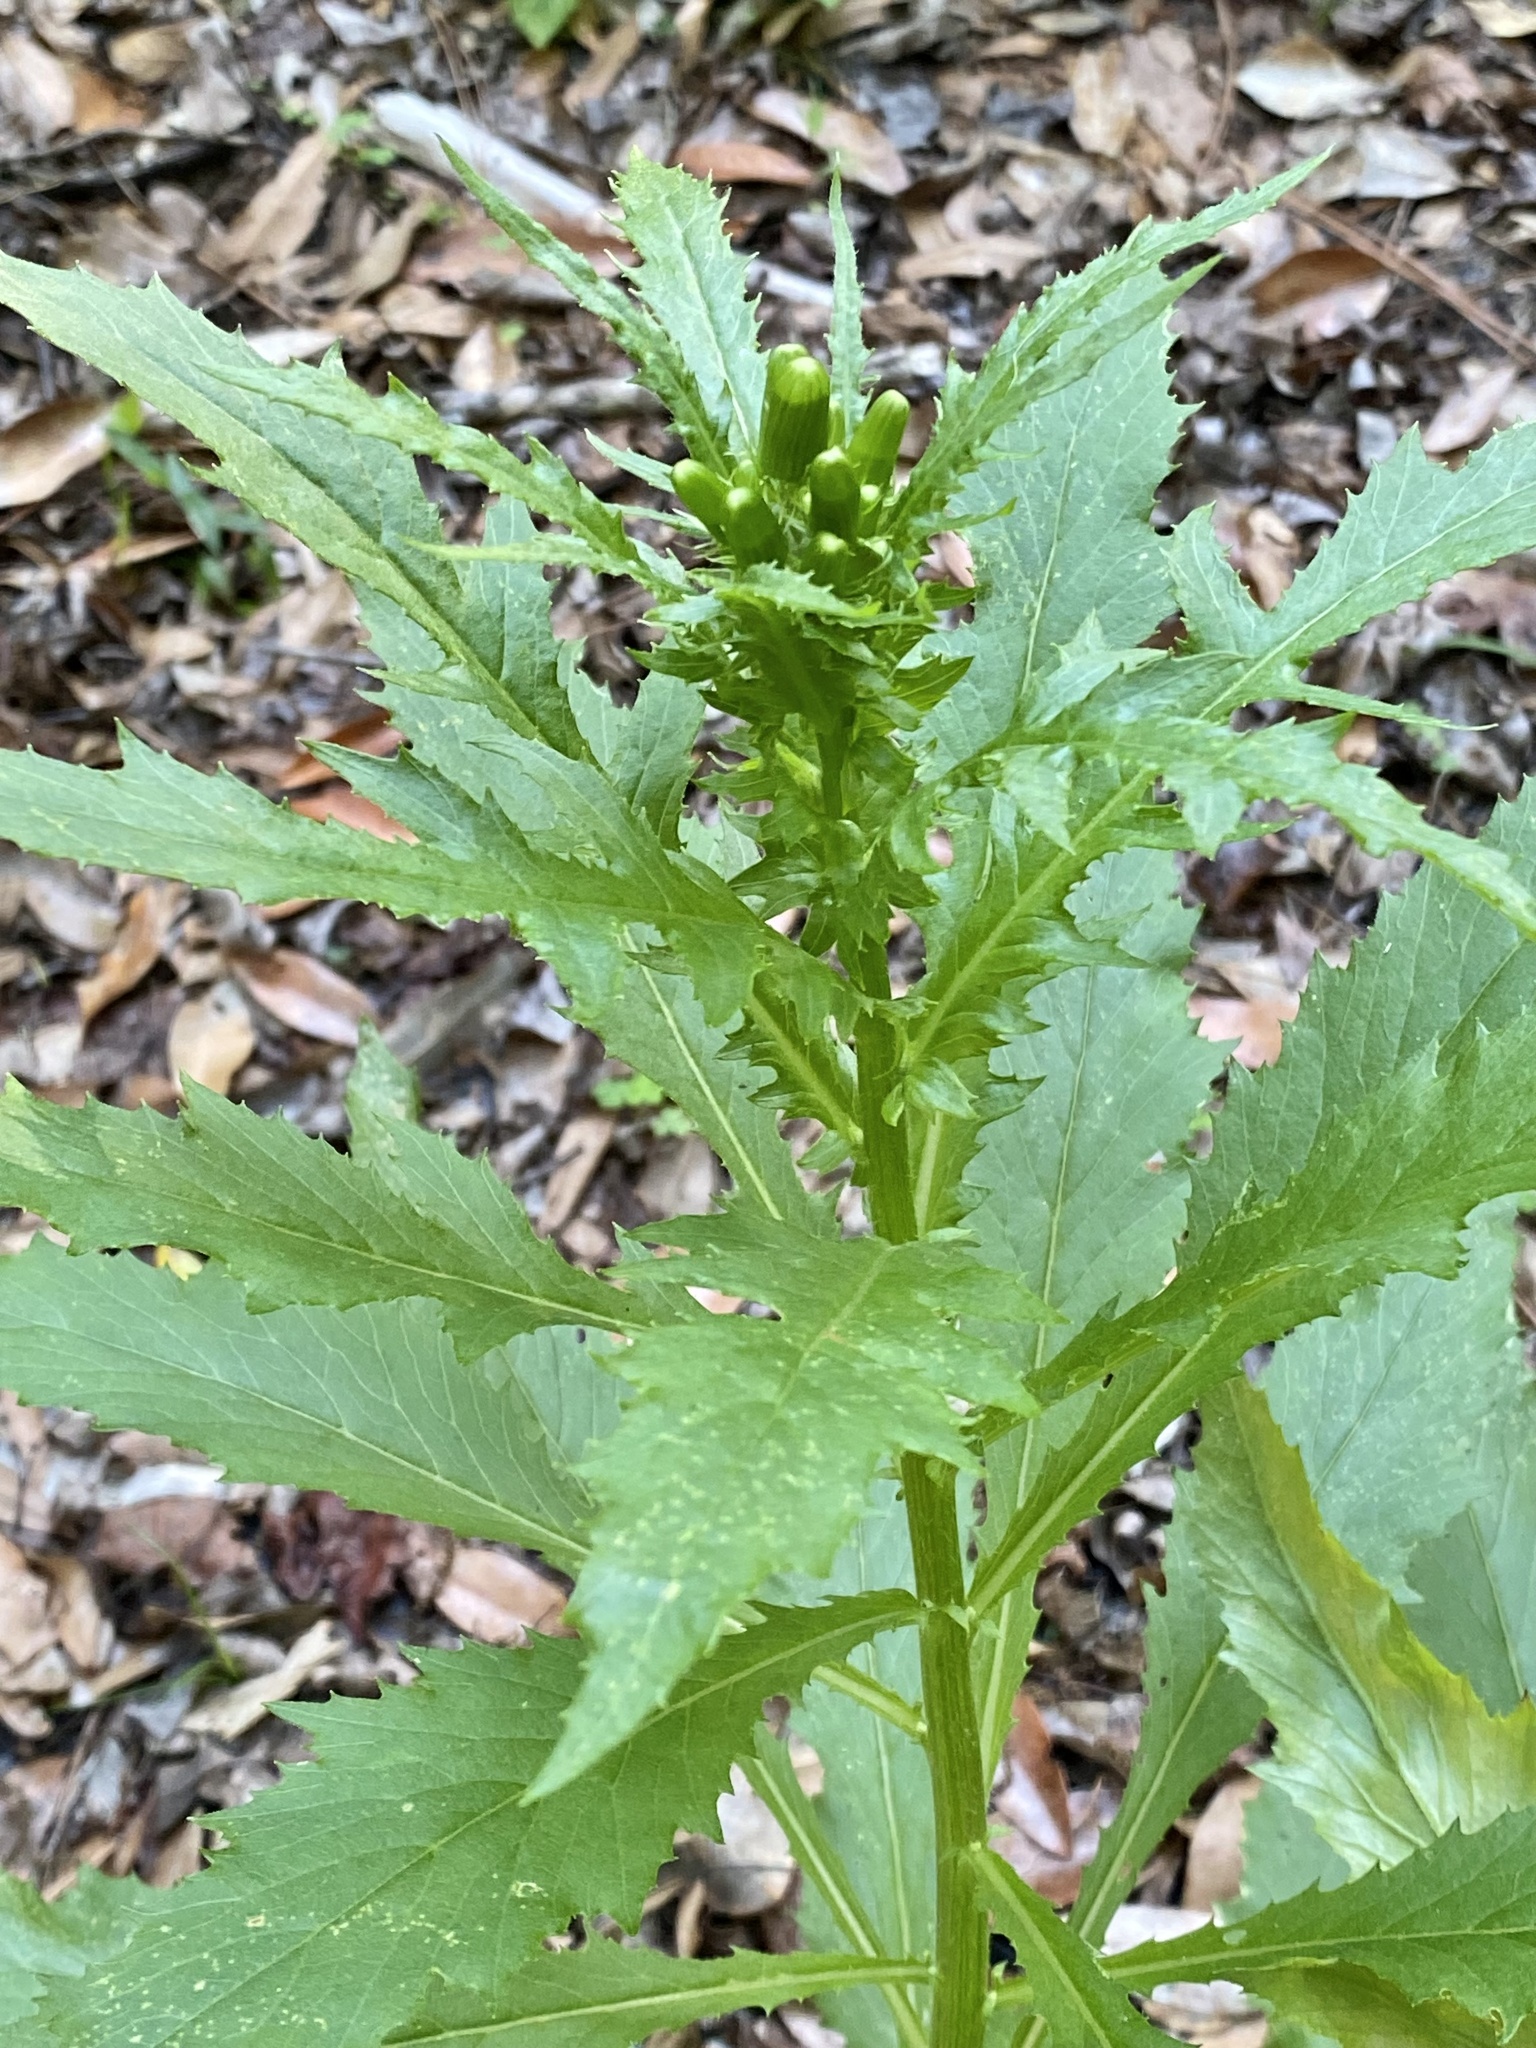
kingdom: Plantae
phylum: Tracheophyta
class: Magnoliopsida
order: Asterales
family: Asteraceae
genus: Erechtites
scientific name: Erechtites hieraciifolius
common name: American burnweed
